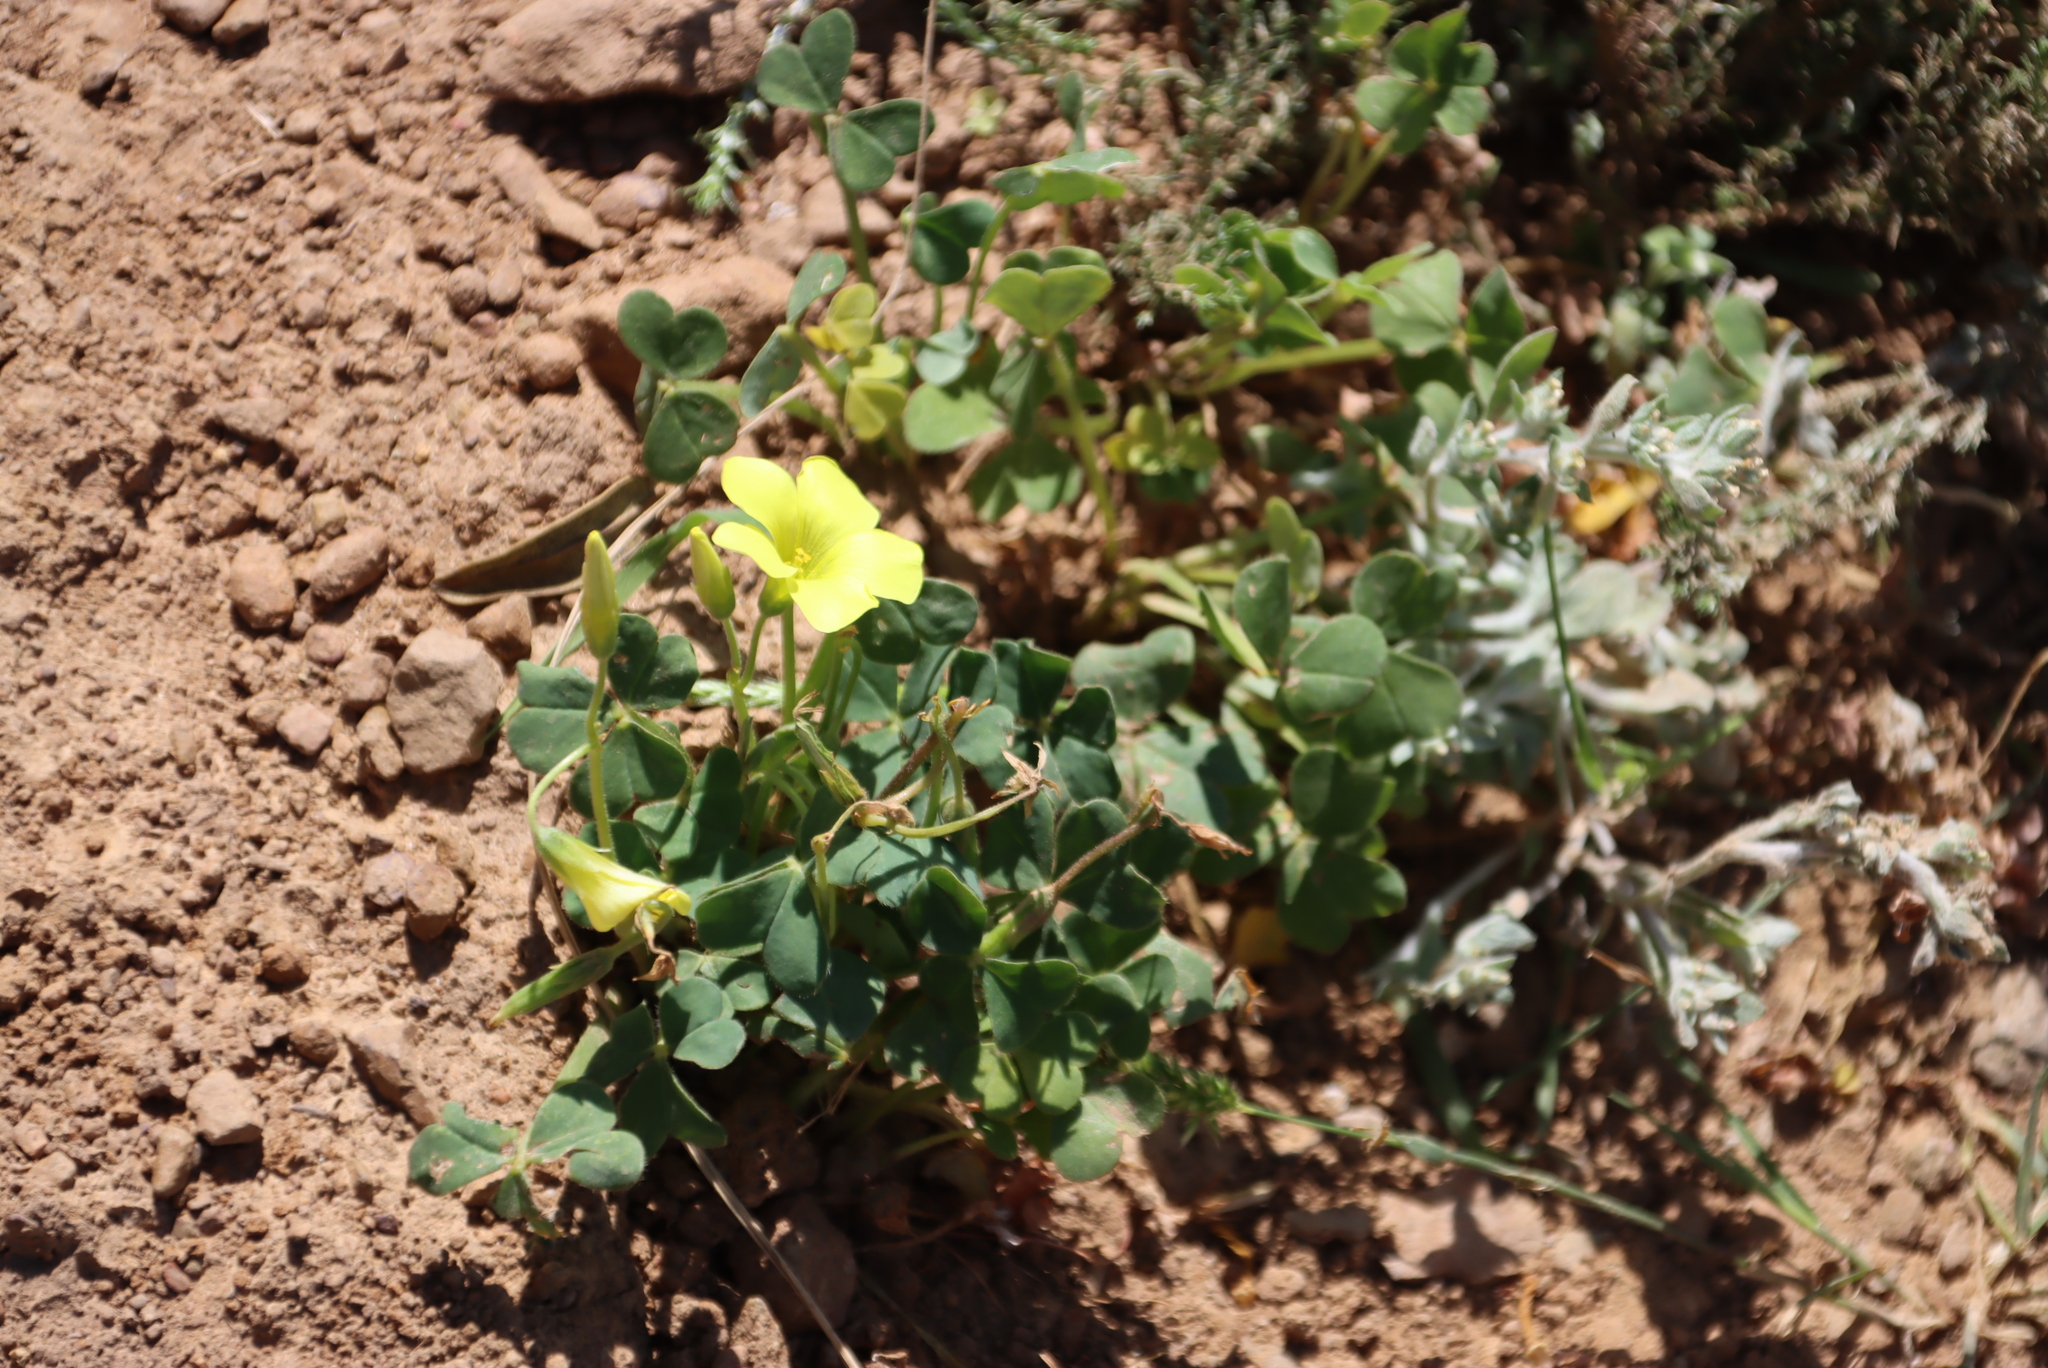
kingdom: Plantae
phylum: Tracheophyta
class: Magnoliopsida
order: Oxalidales
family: Oxalidaceae
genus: Oxalis
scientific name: Oxalis compressa
